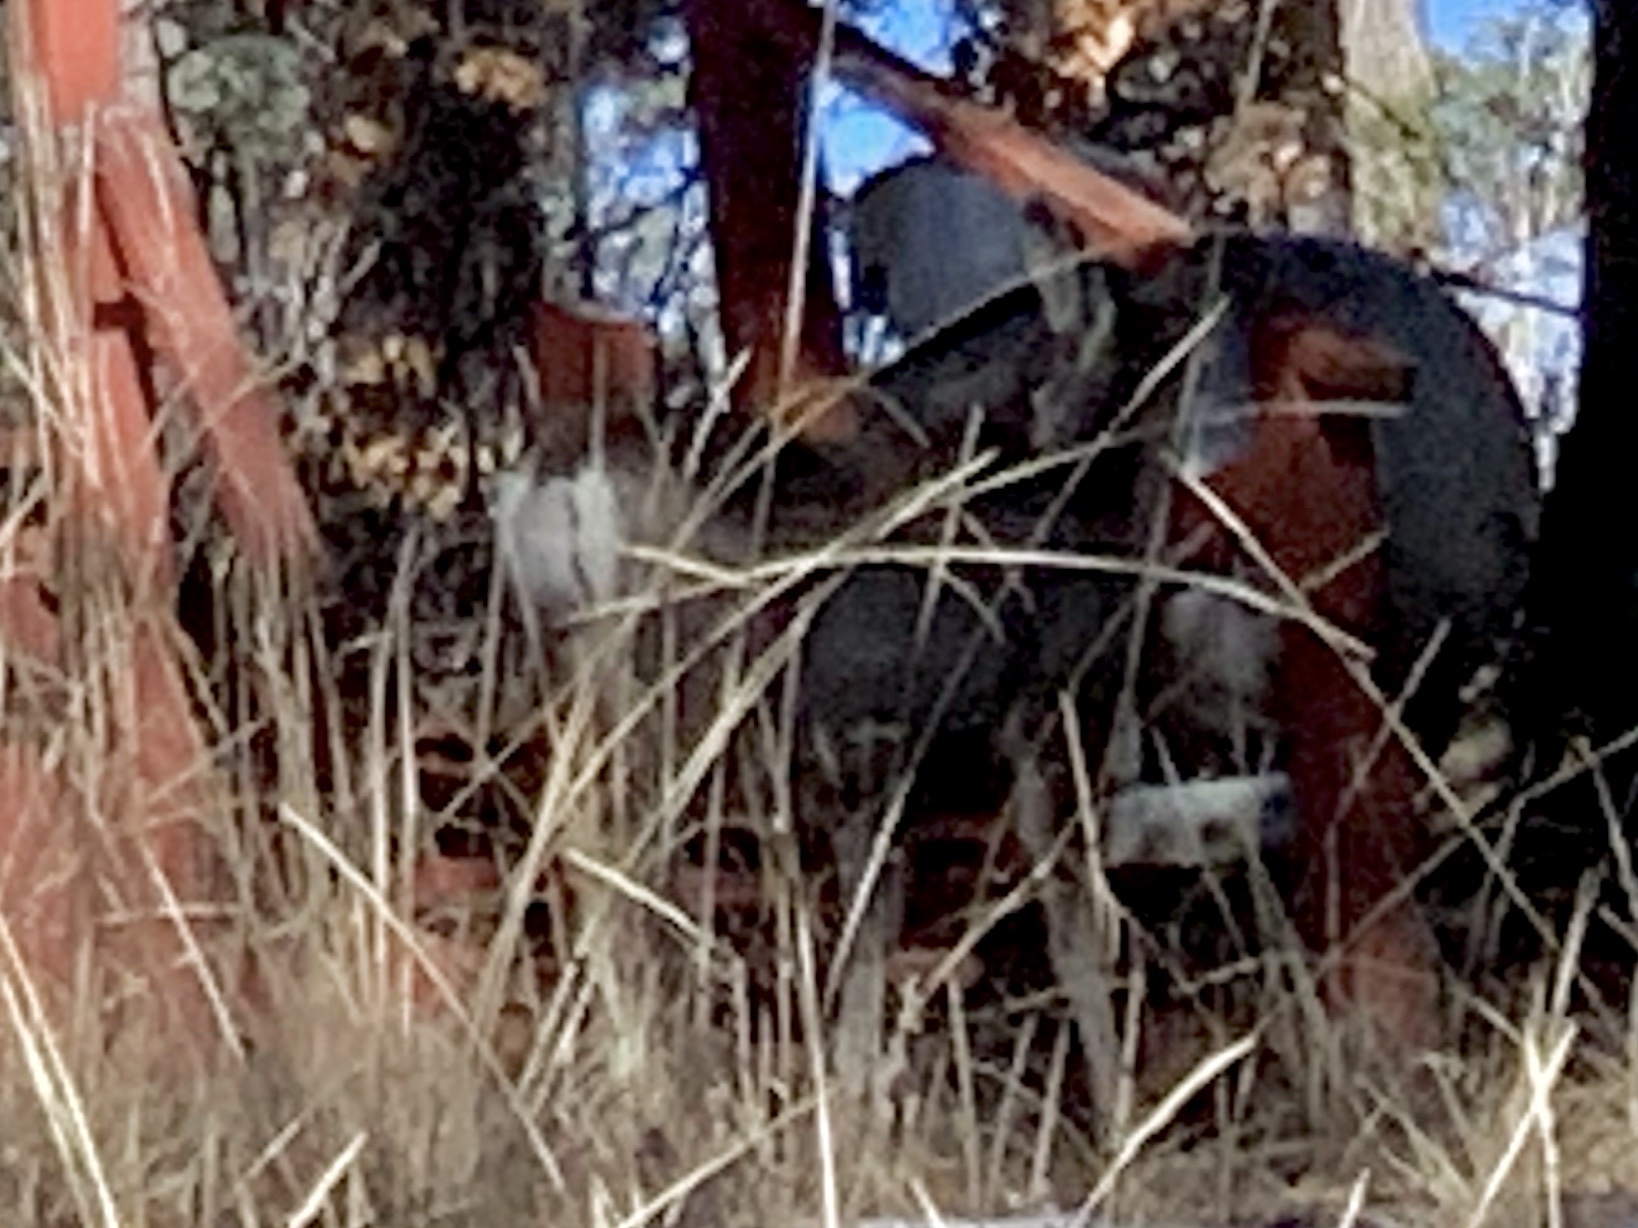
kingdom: Animalia
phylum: Chordata
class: Mammalia
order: Artiodactyla
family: Cervidae
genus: Odocoileus
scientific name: Odocoileus hemionus
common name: Mule deer
